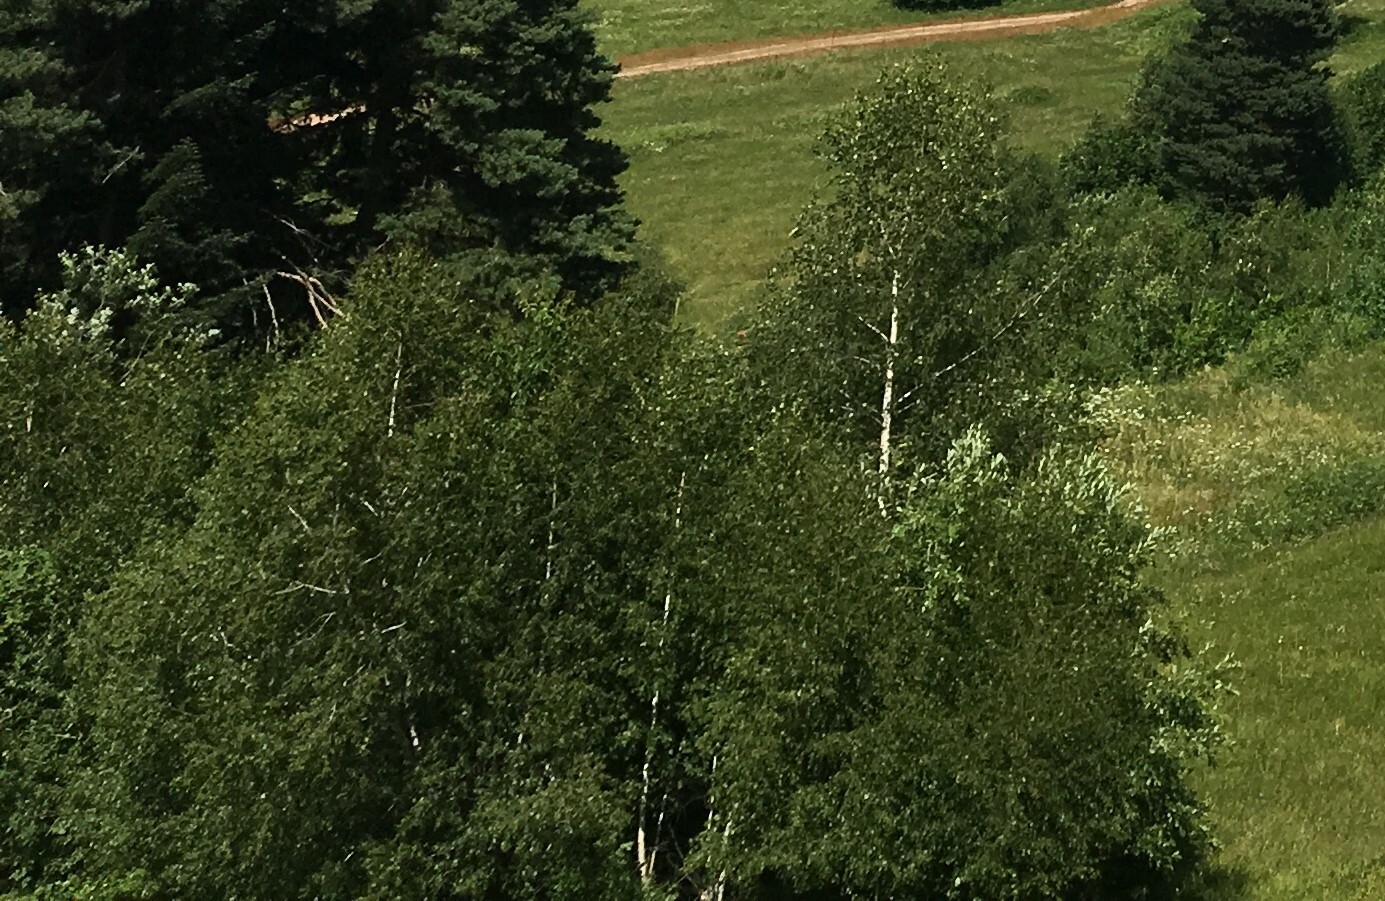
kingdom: Plantae
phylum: Tracheophyta
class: Magnoliopsida
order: Fagales
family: Betulaceae
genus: Betula
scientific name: Betula
